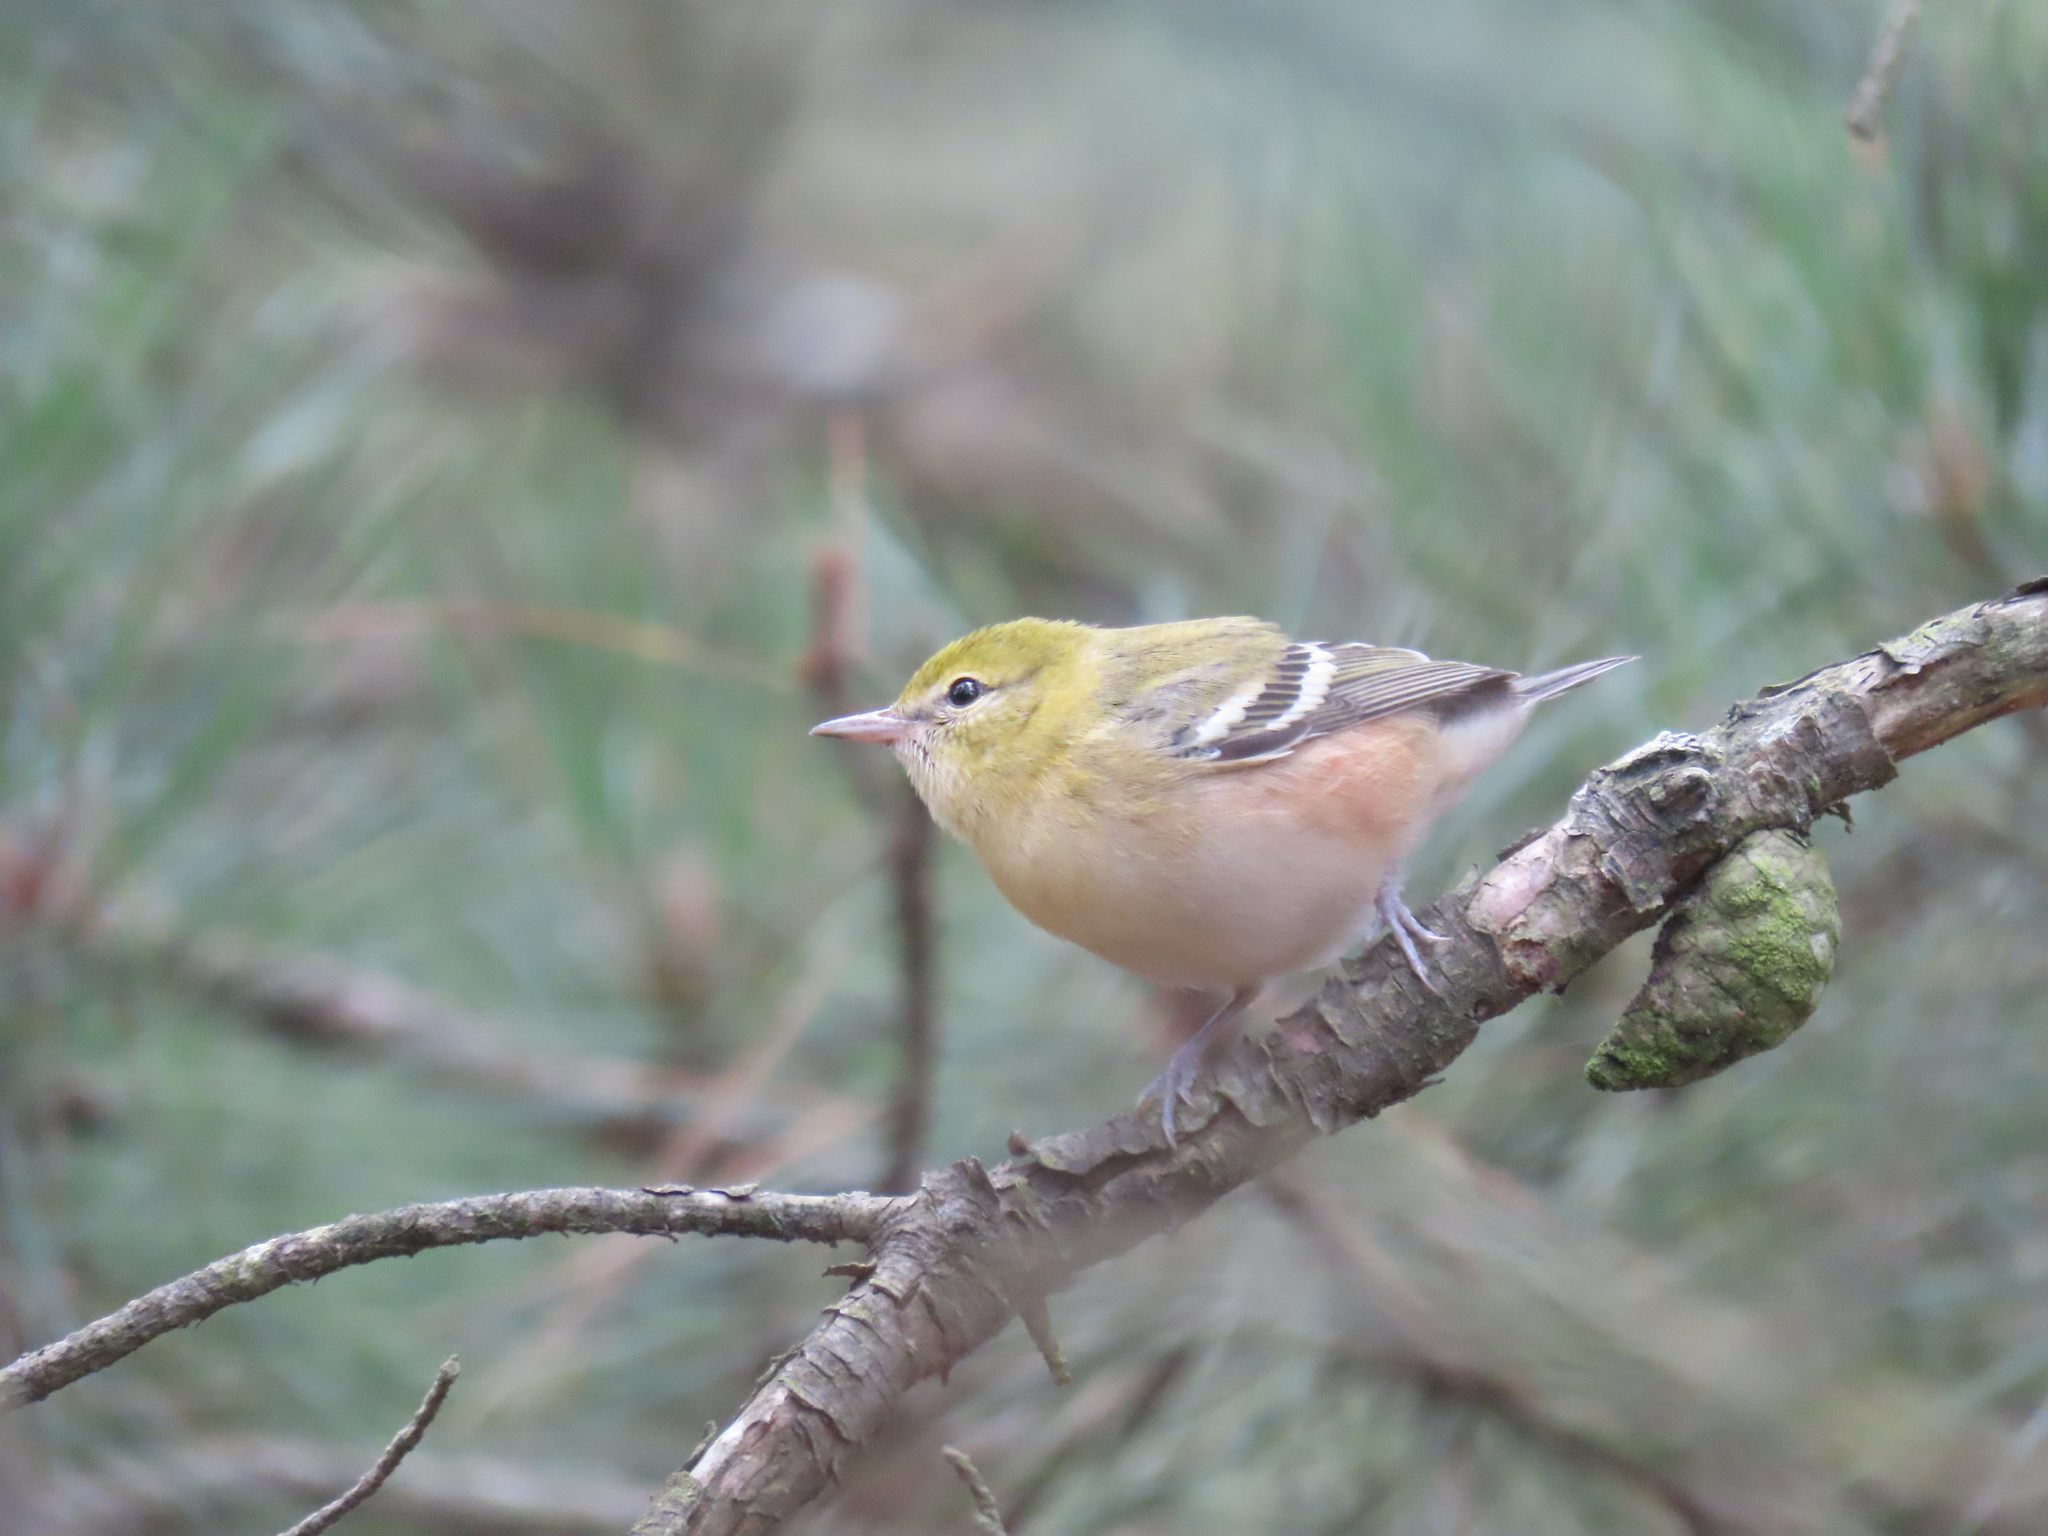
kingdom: Animalia
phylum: Chordata
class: Aves
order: Passeriformes
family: Parulidae
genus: Setophaga
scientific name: Setophaga castanea
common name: Bay-breasted warbler
